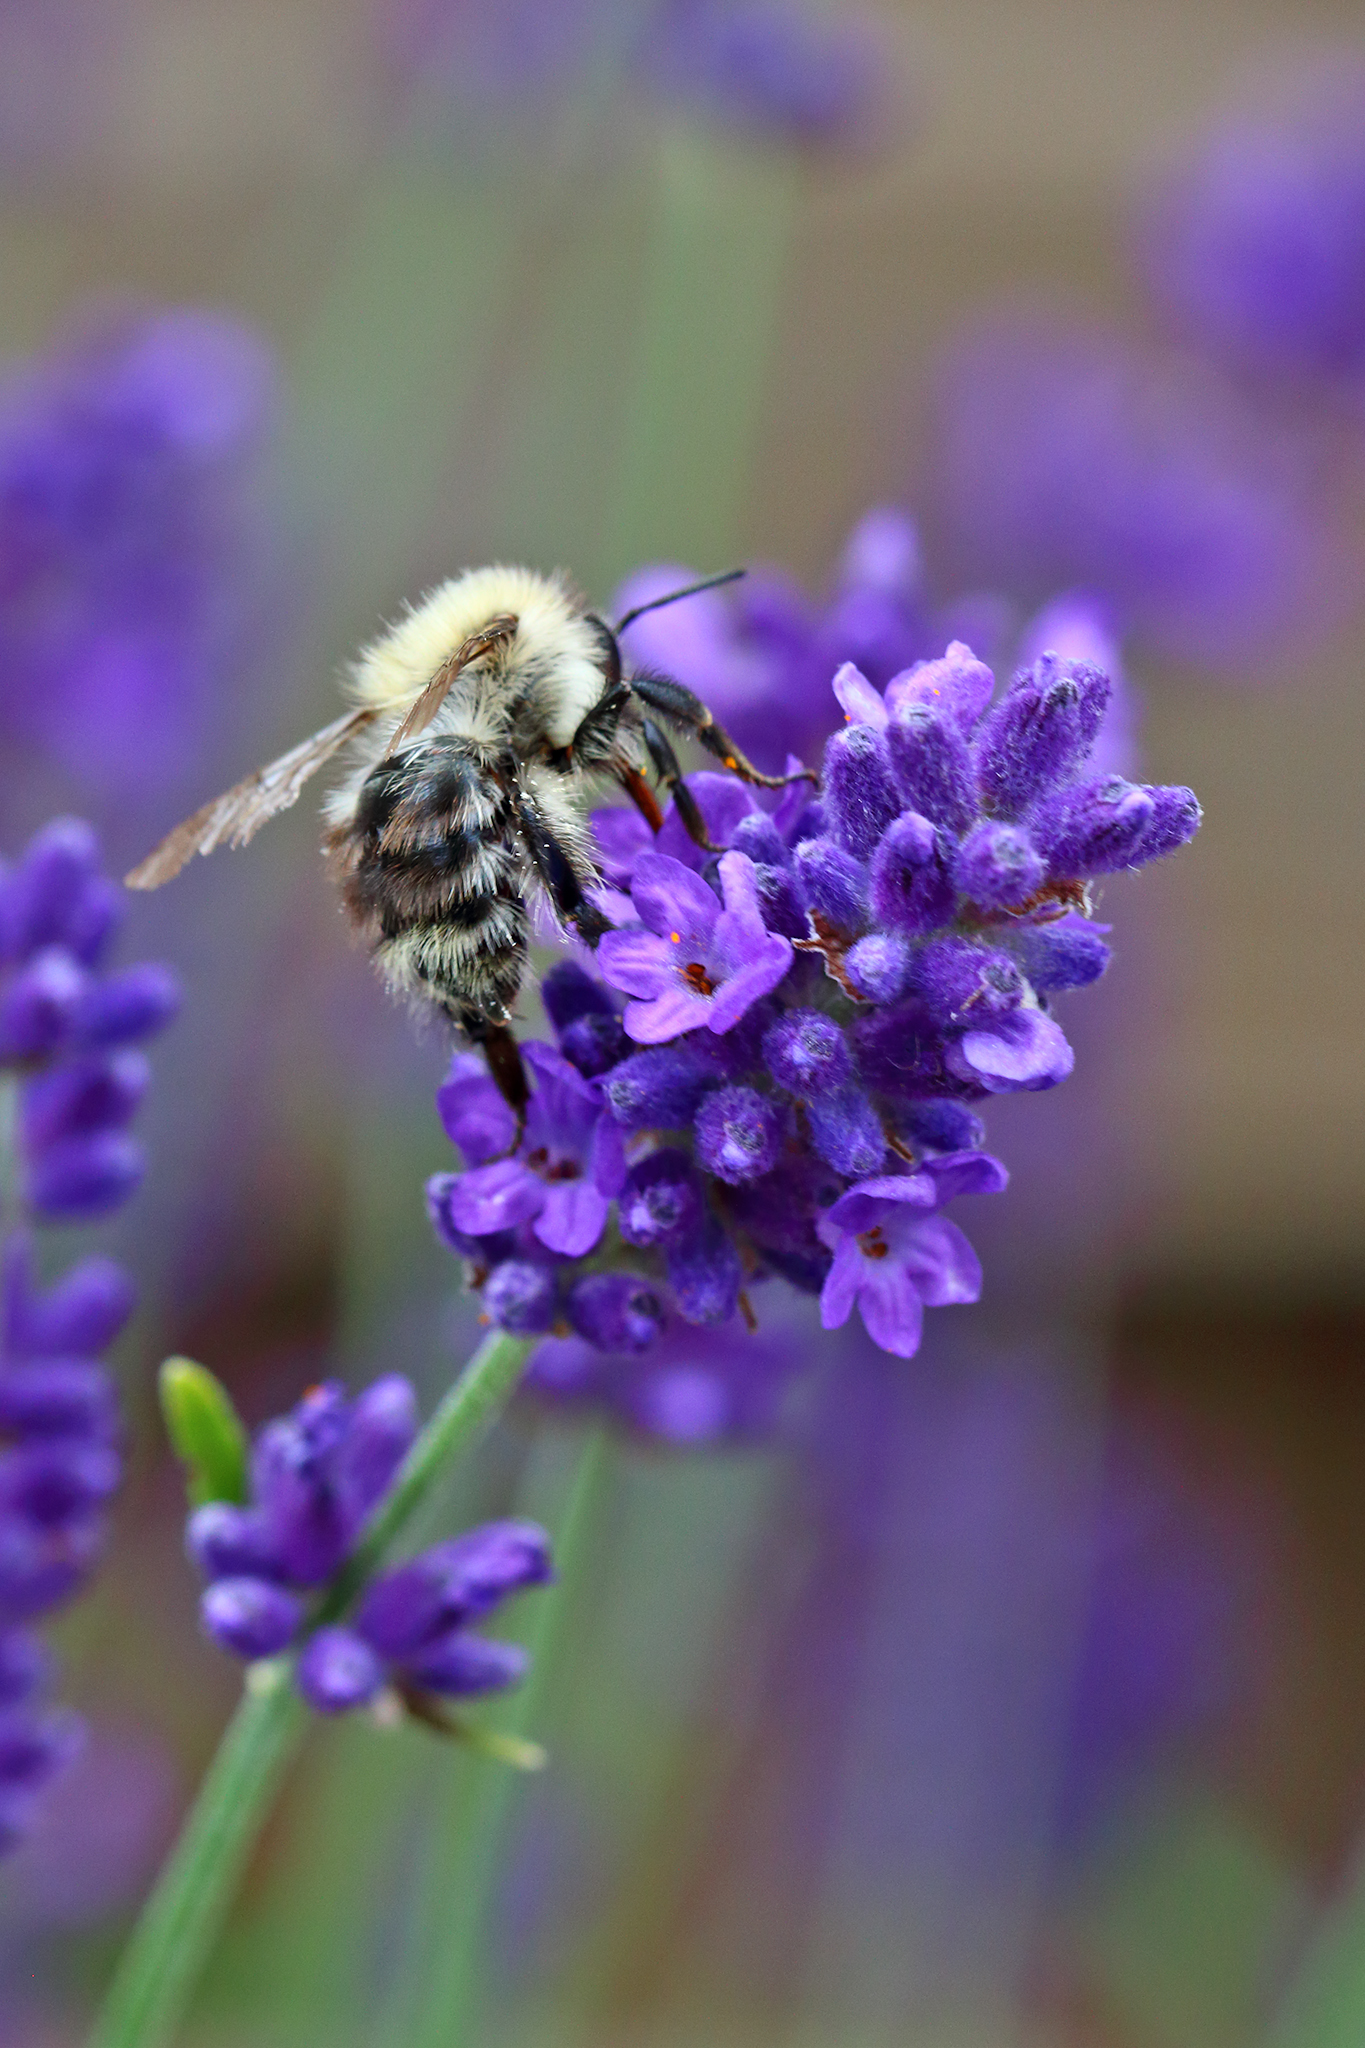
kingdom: Animalia
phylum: Arthropoda
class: Insecta
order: Hymenoptera
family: Apidae
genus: Bombus
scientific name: Bombus pascuorum
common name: Common carder bee
